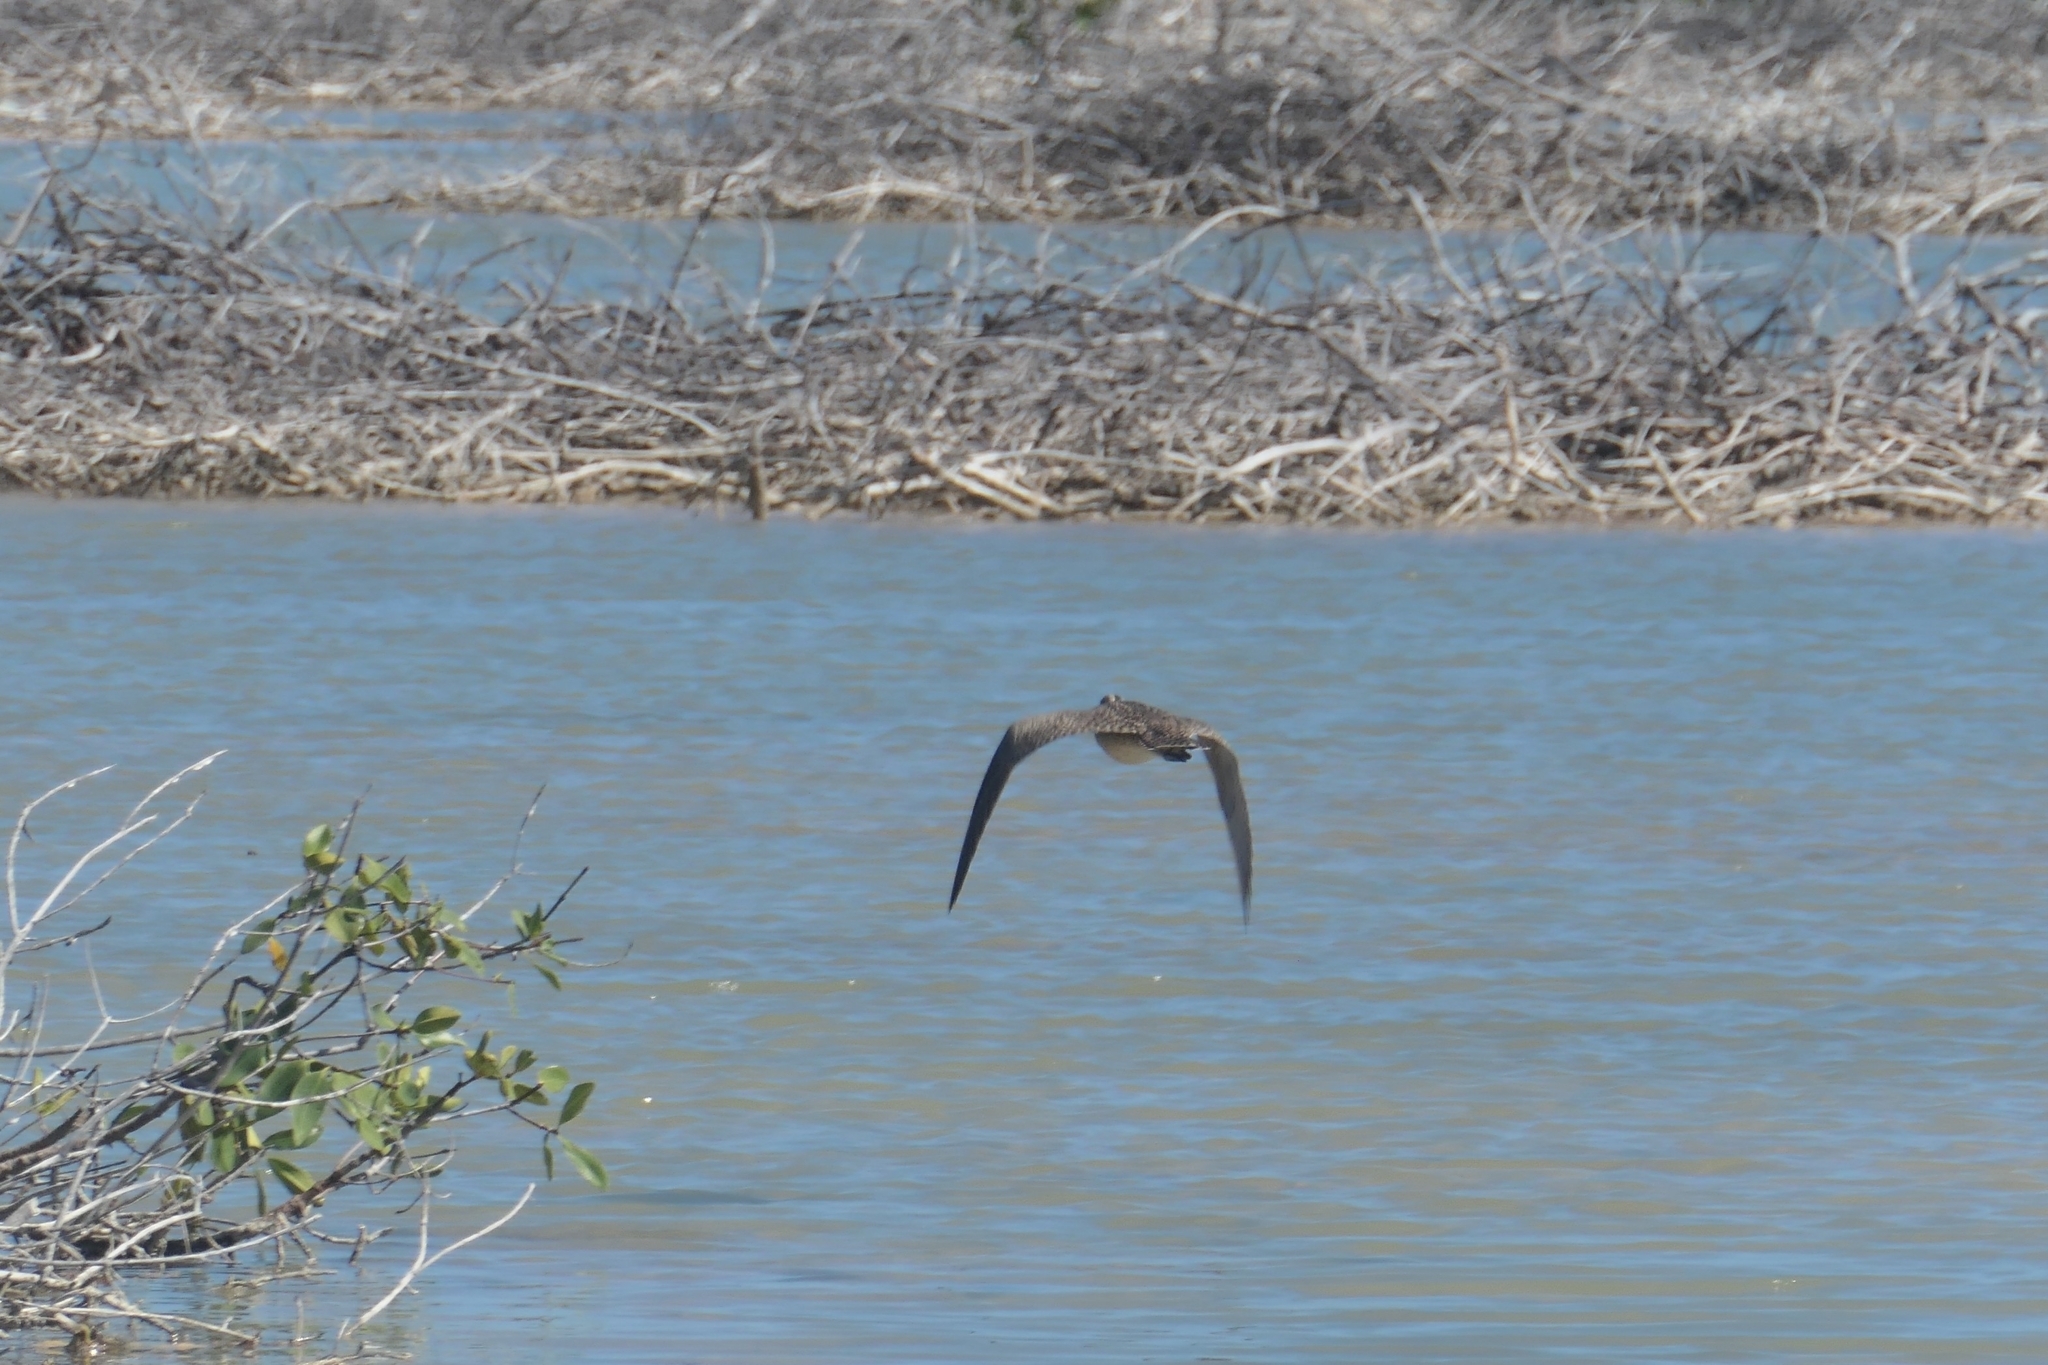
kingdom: Animalia
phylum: Chordata
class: Aves
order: Pelecaniformes
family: Pelecanidae
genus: Pelecanus
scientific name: Pelecanus occidentalis
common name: Brown pelican
